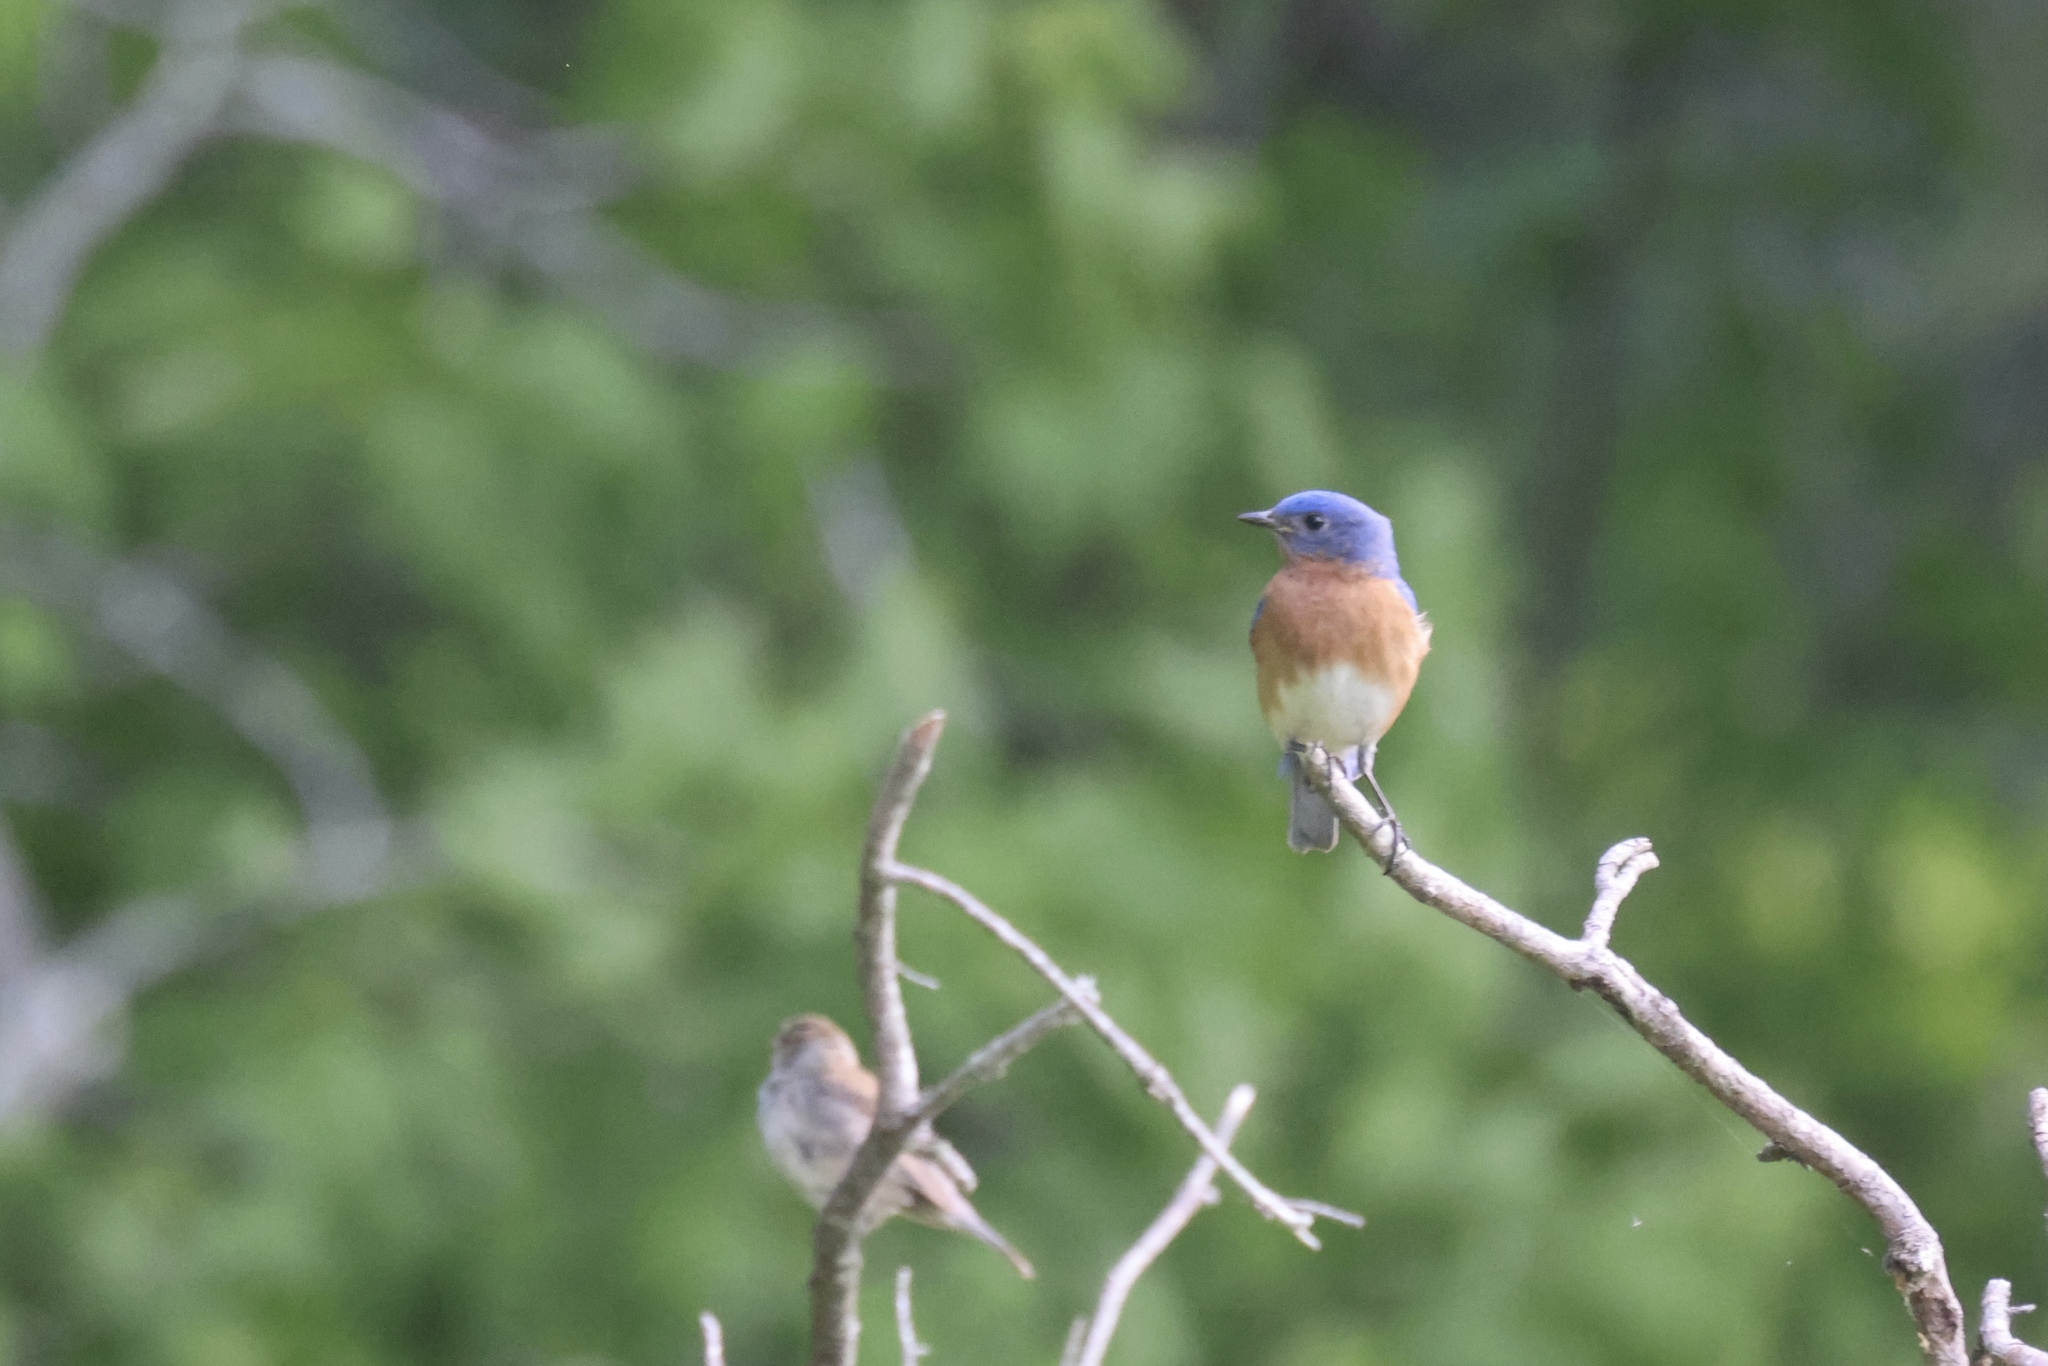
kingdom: Animalia
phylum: Chordata
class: Aves
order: Passeriformes
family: Turdidae
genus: Sialia
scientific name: Sialia sialis
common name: Eastern bluebird
